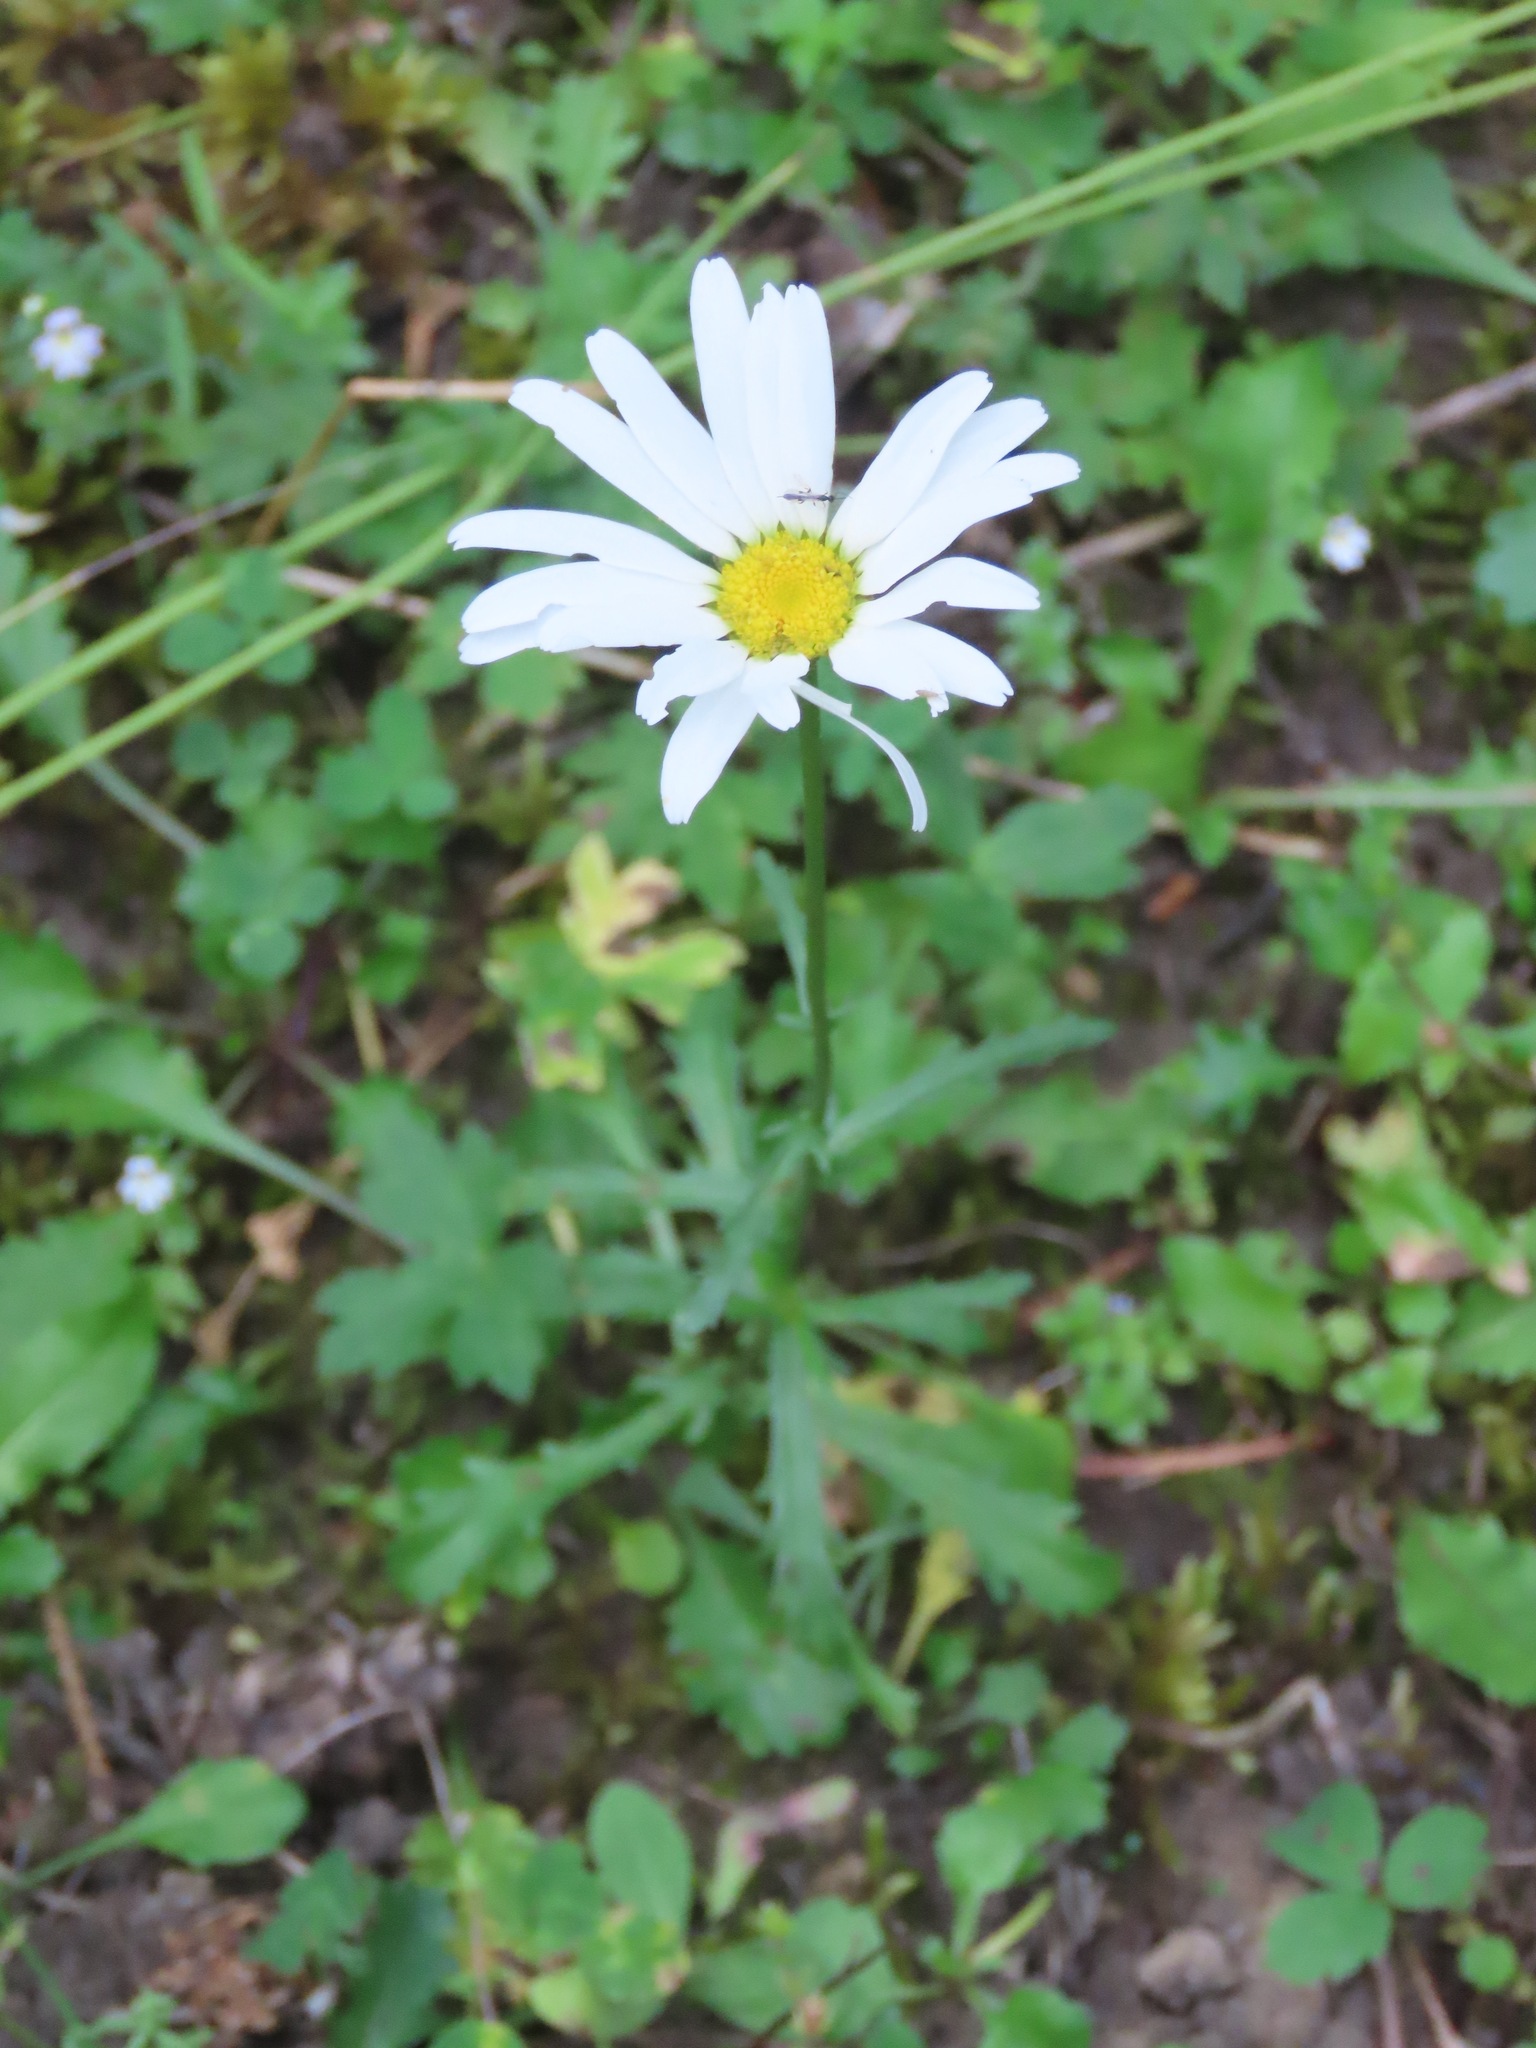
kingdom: Plantae
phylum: Tracheophyta
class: Magnoliopsida
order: Asterales
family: Asteraceae
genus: Leucanthemum
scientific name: Leucanthemum vulgare
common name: Oxeye daisy
